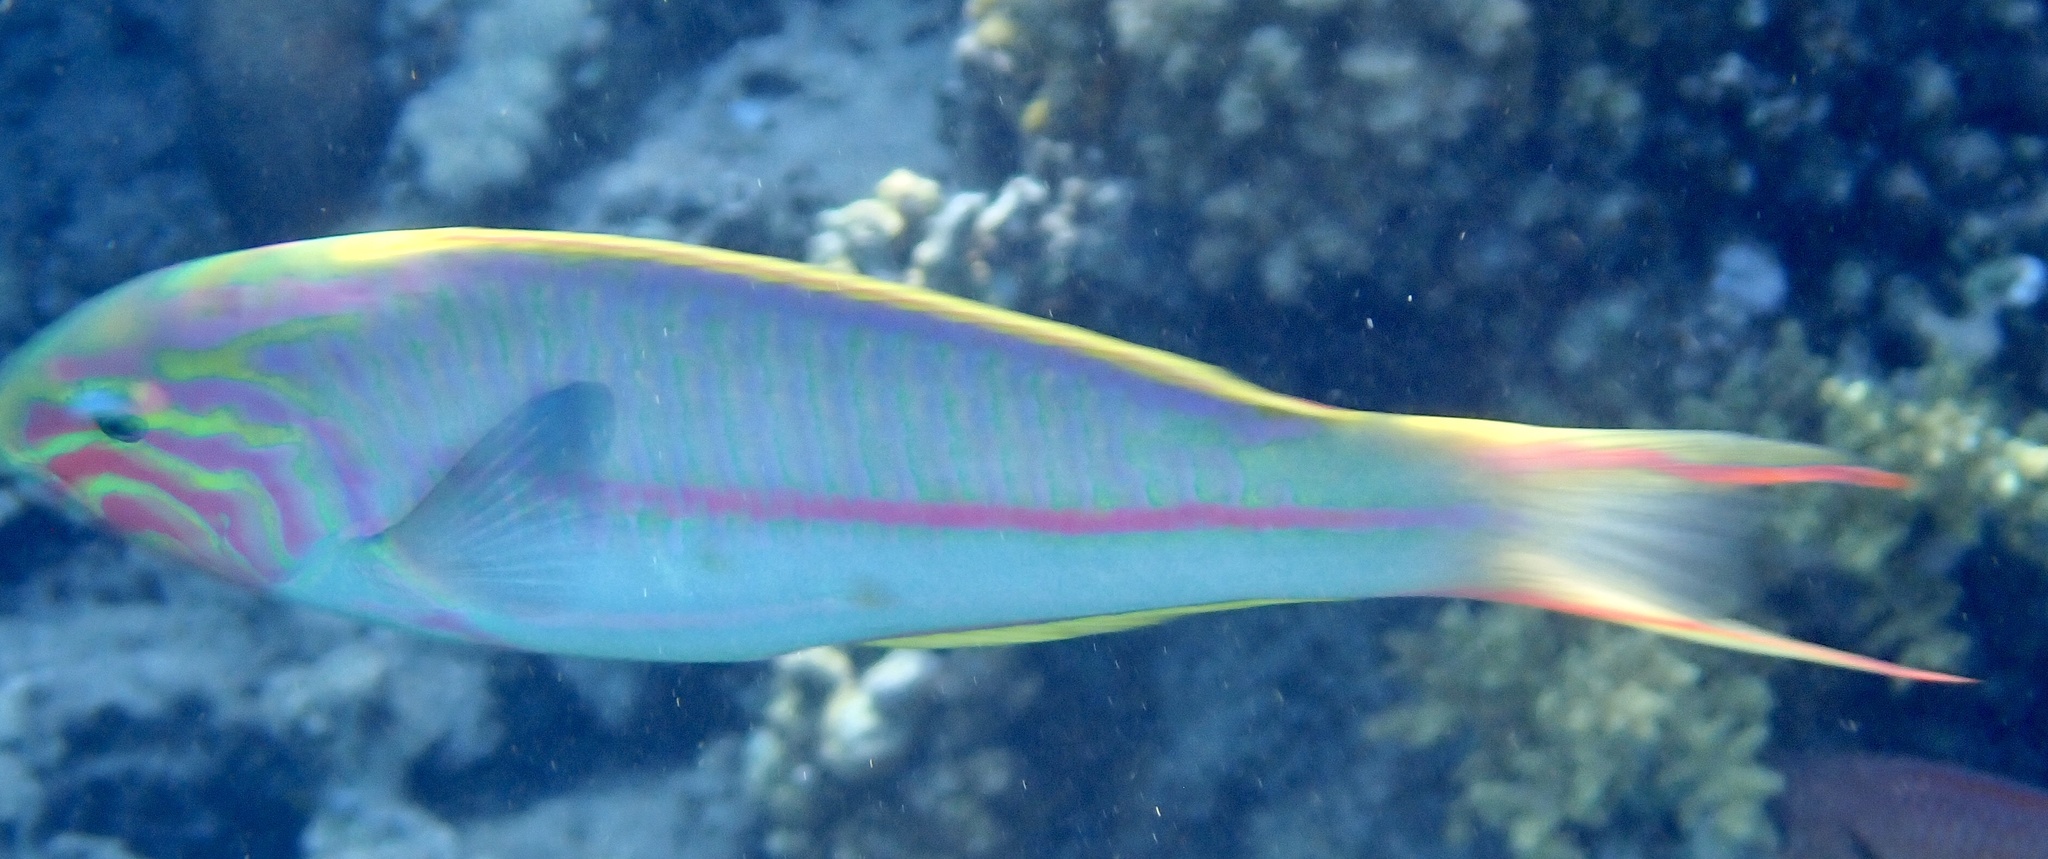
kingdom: Animalia
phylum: Chordata
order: Perciformes
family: Labridae
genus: Thalassoma
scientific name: Thalassoma rueppellii
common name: Klunzinger's wrasse
